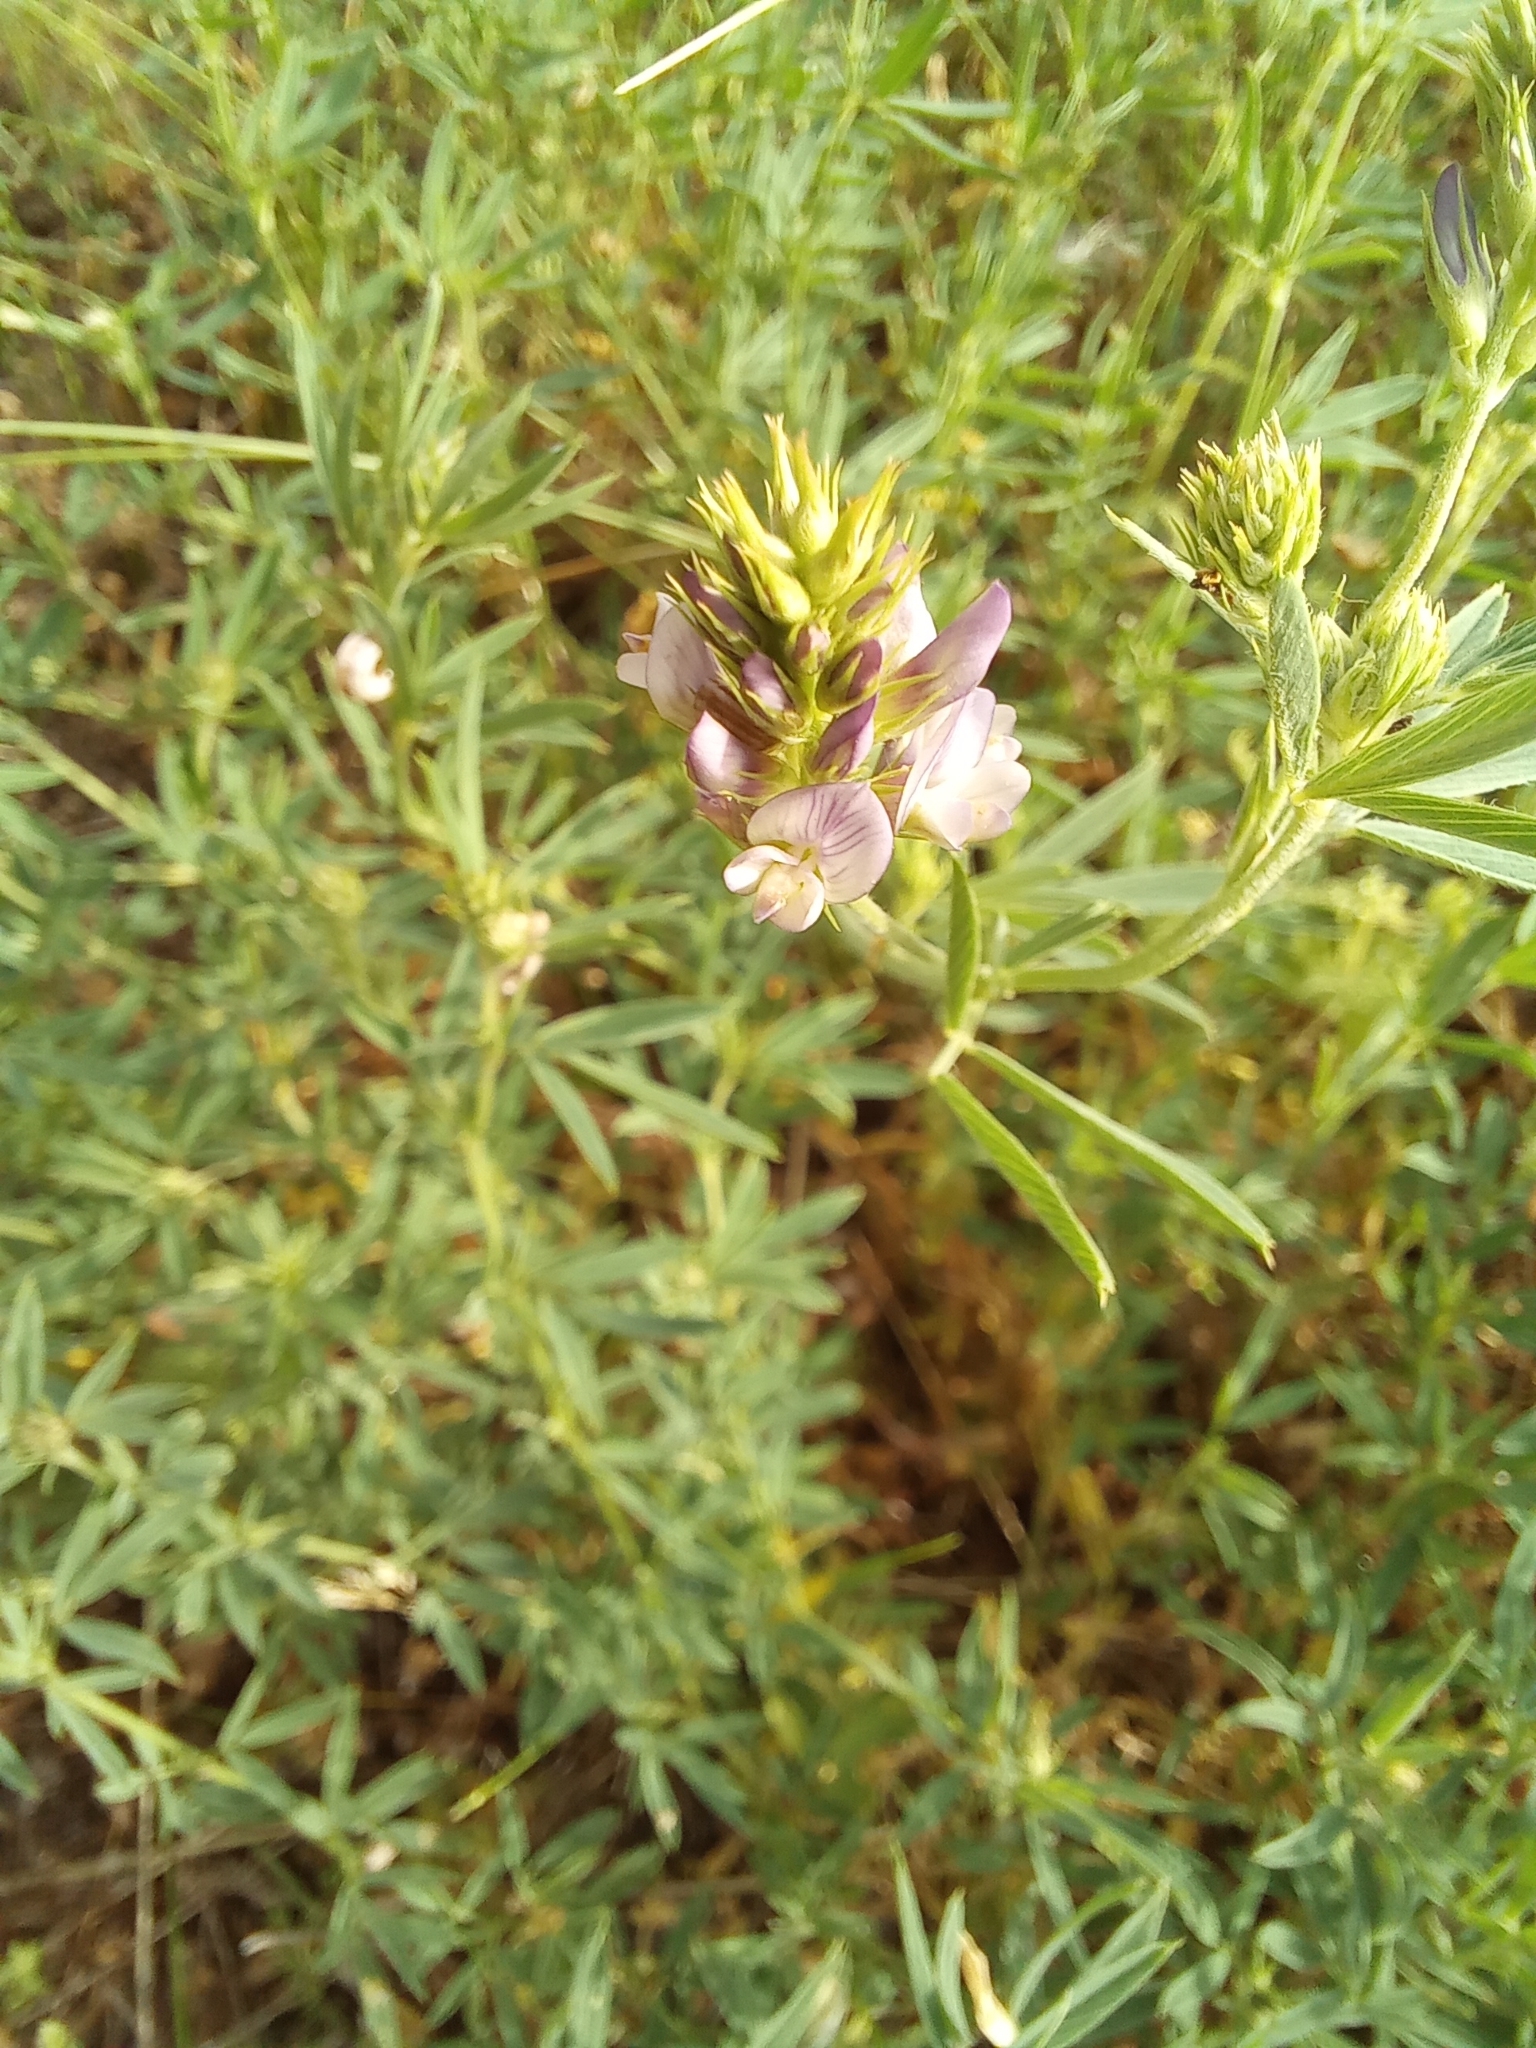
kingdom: Plantae
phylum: Tracheophyta
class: Magnoliopsida
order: Fabales
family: Fabaceae
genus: Medicago
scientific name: Medicago sativa
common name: Alfalfa
